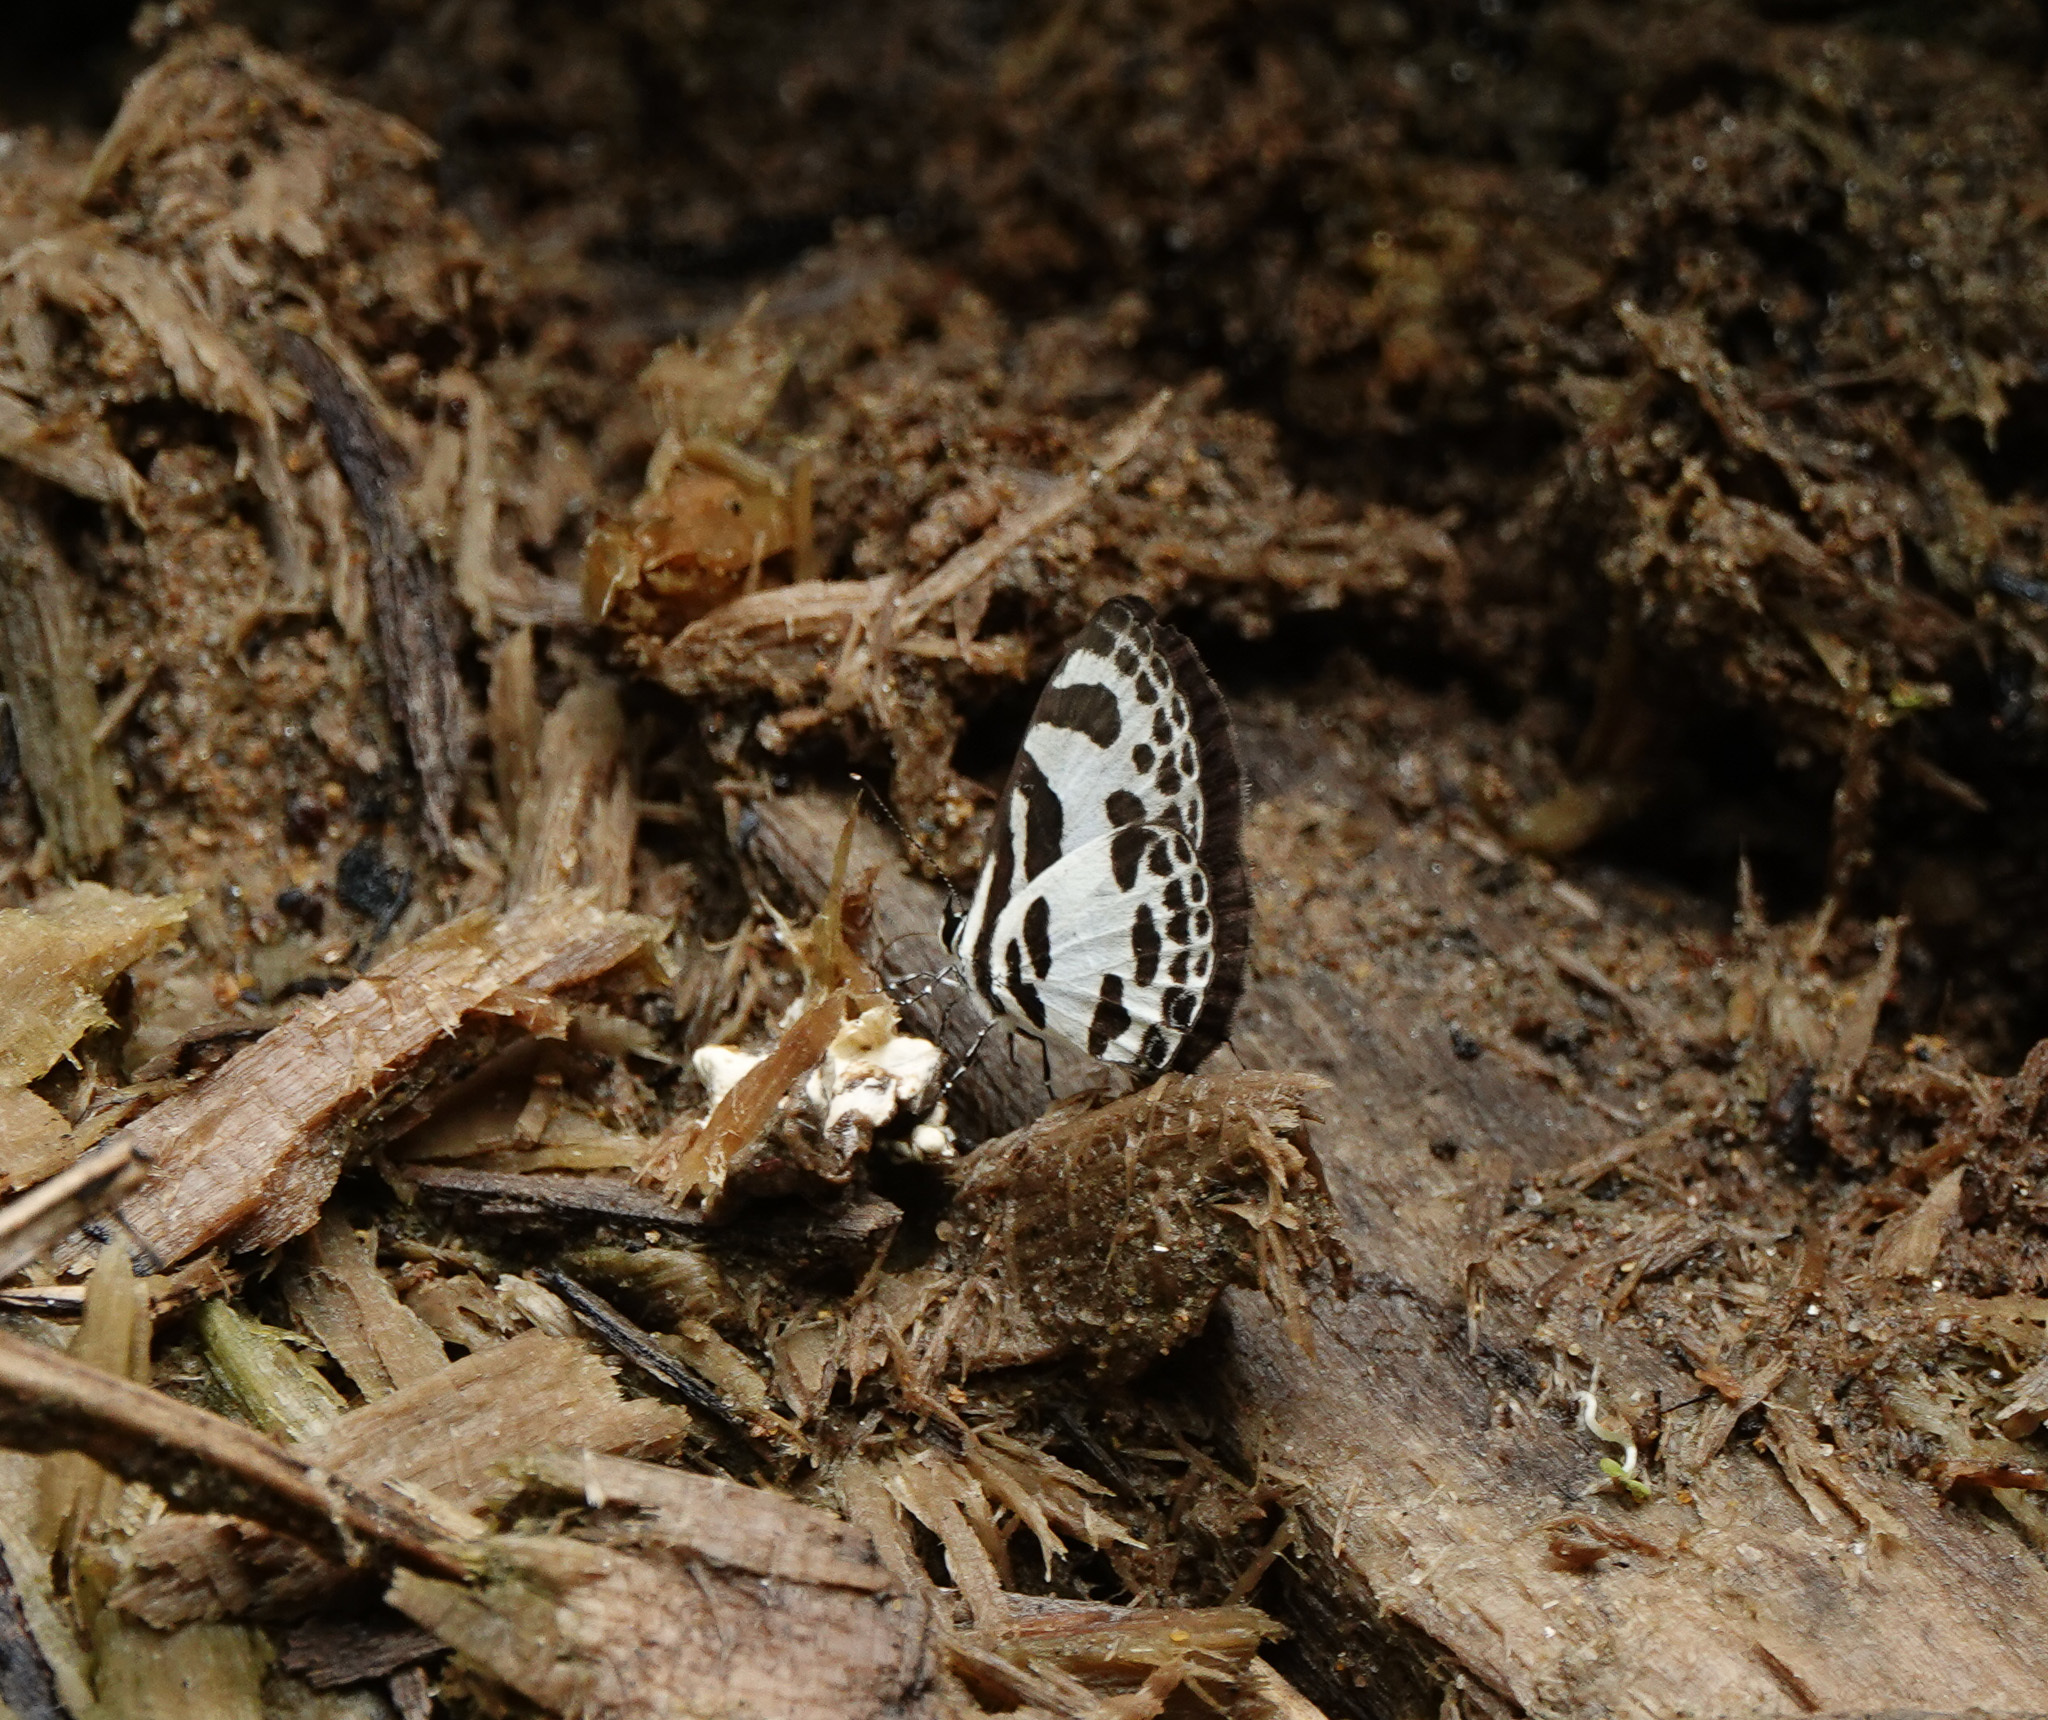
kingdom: Animalia
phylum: Arthropoda
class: Insecta
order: Lepidoptera
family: Lycaenidae
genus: Discolampa
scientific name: Discolampa ethion
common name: Banded blue pierrot
